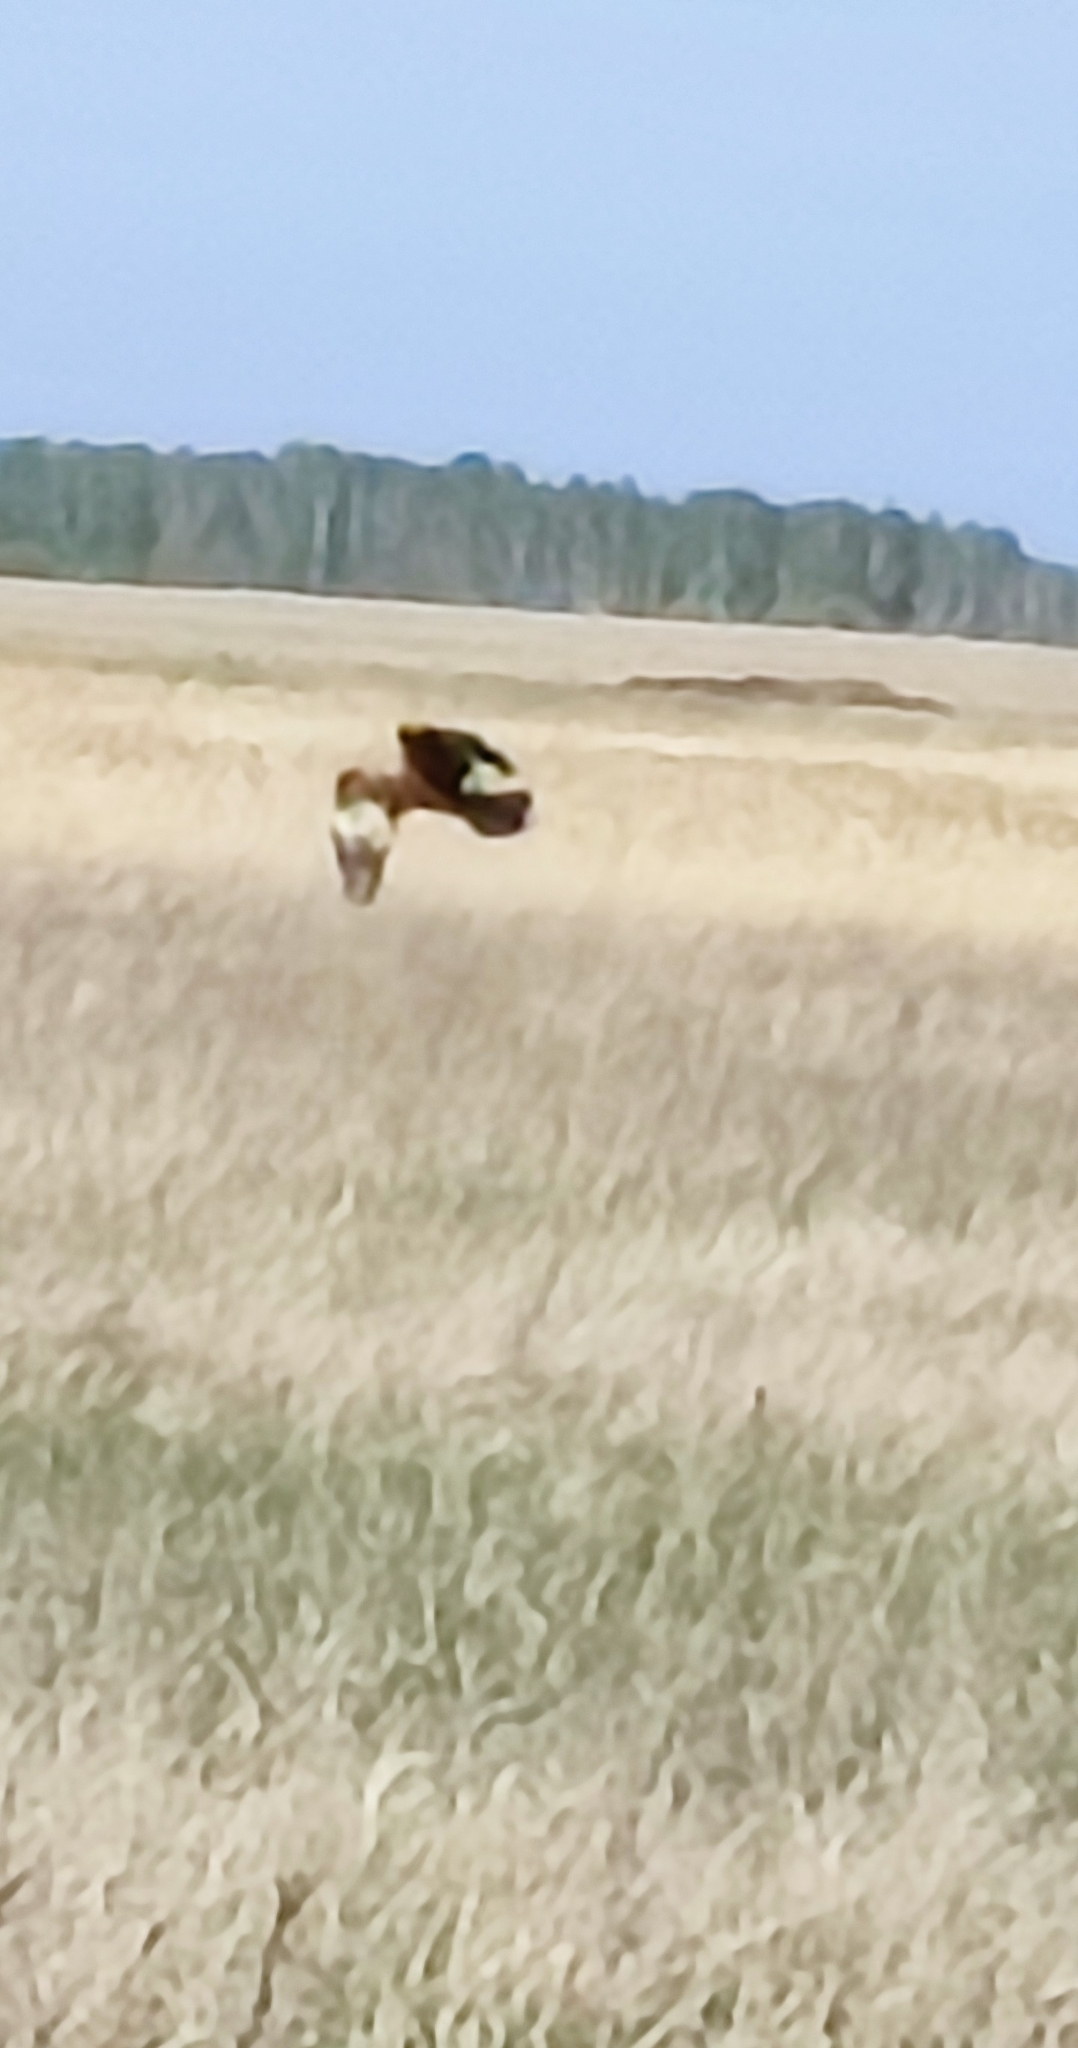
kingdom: Animalia
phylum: Chordata
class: Aves
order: Accipitriformes
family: Accipitridae
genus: Circus
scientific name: Circus aeruginosus
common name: Western marsh harrier
